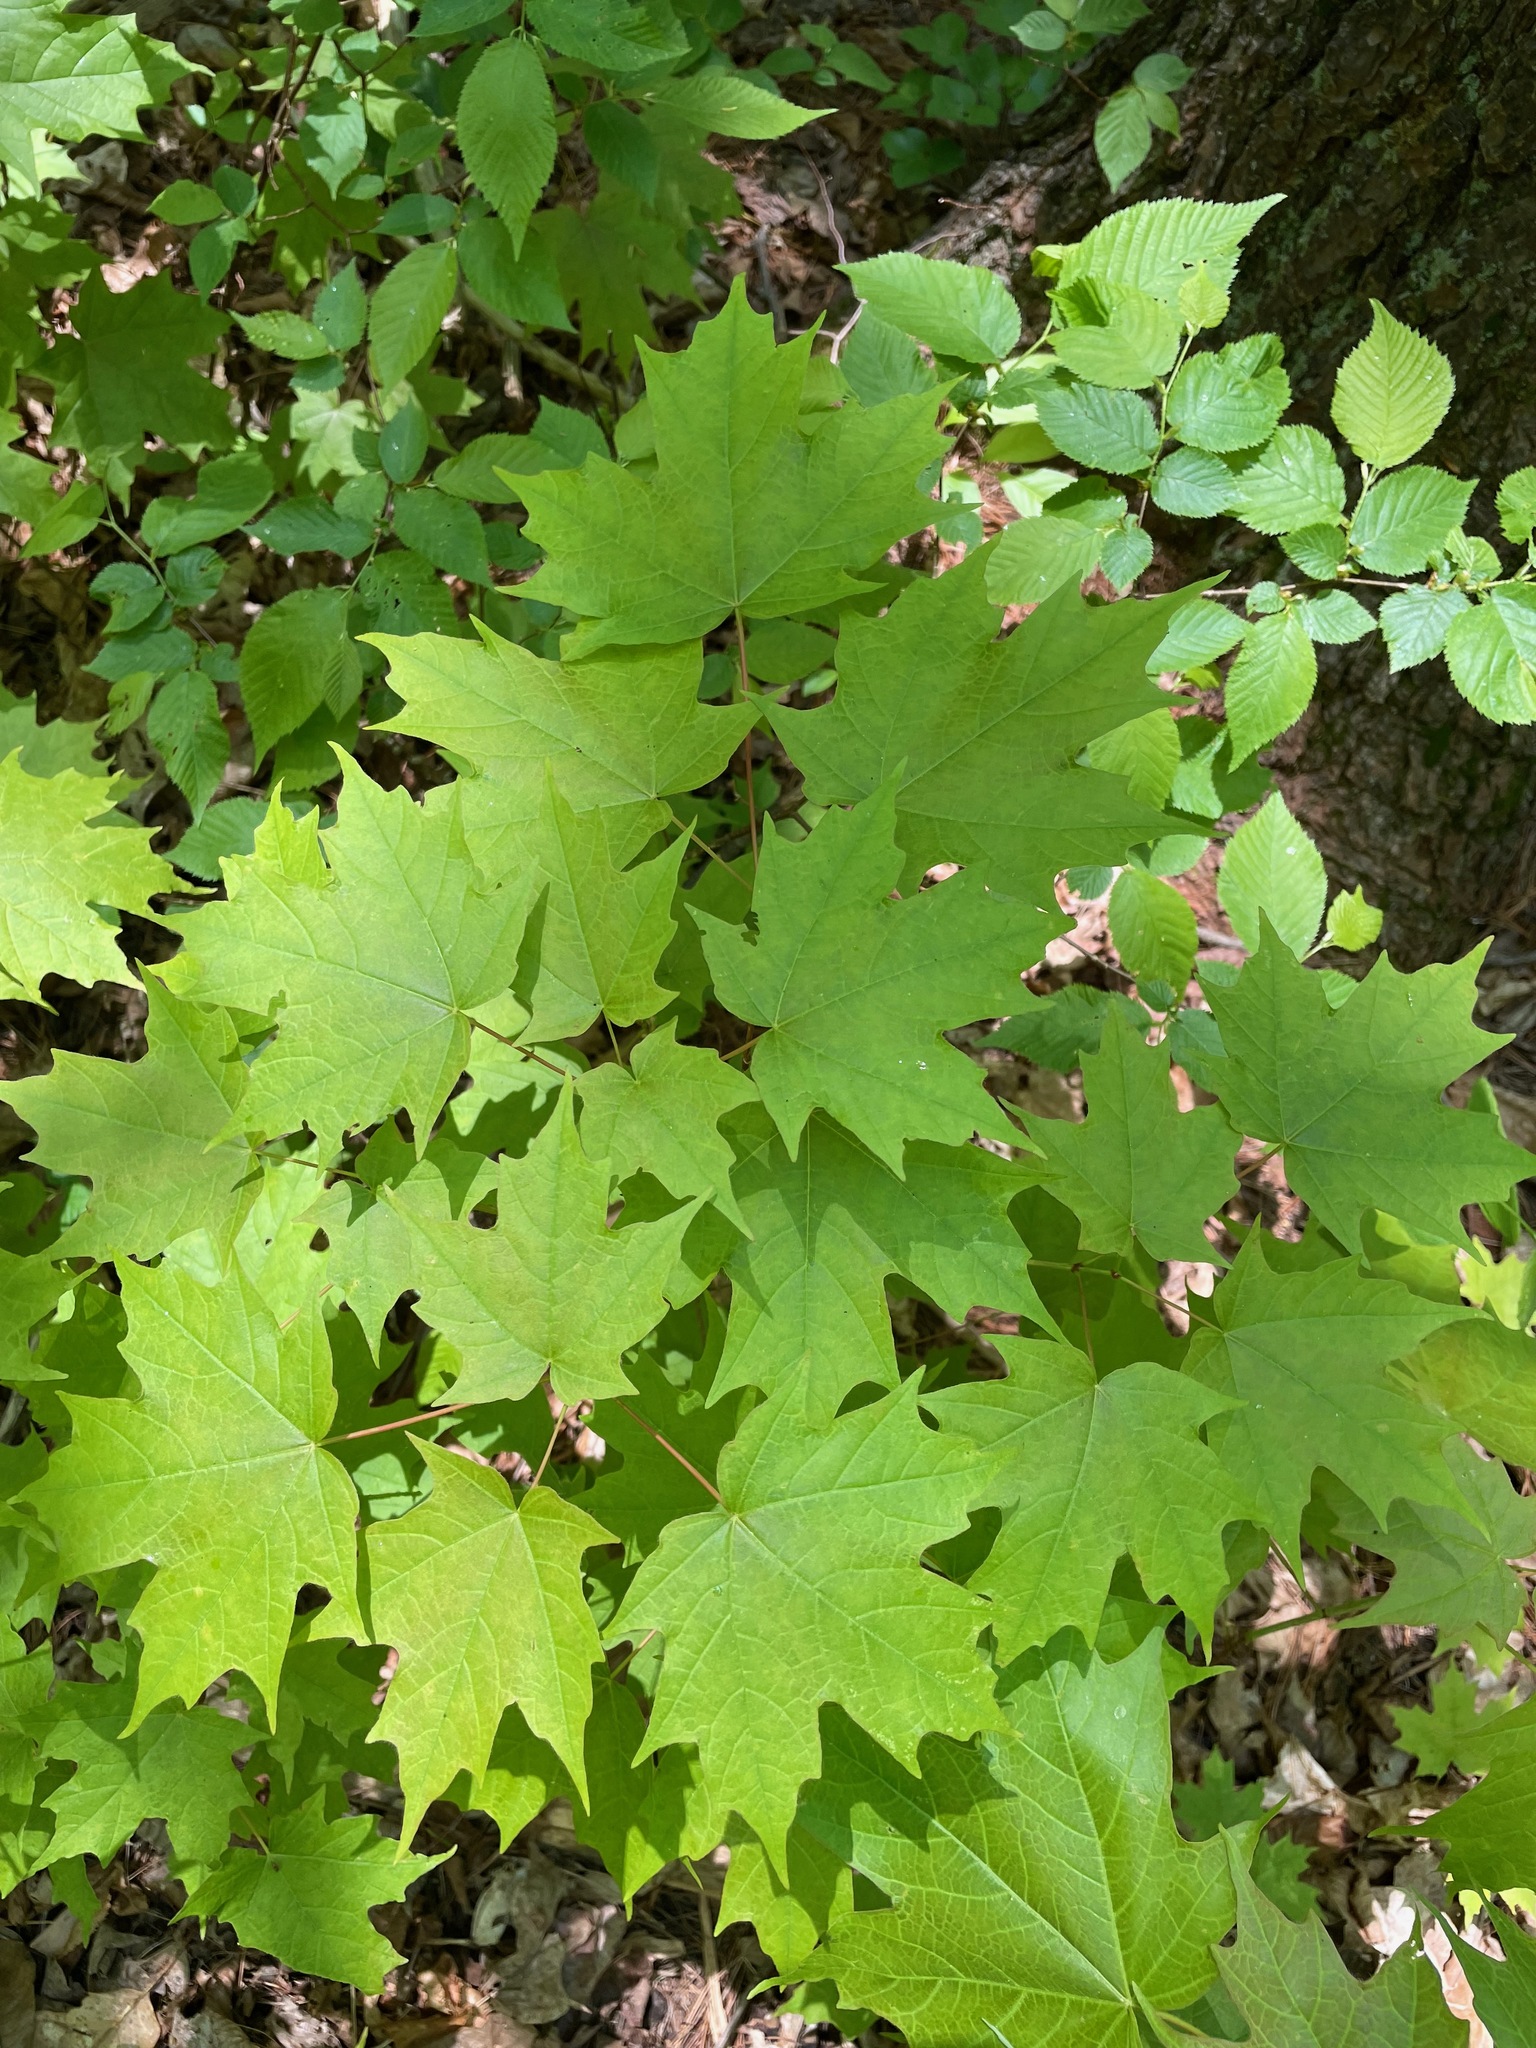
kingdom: Plantae
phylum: Tracheophyta
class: Magnoliopsida
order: Sapindales
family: Sapindaceae
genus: Acer
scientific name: Acer saccharum
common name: Sugar maple
